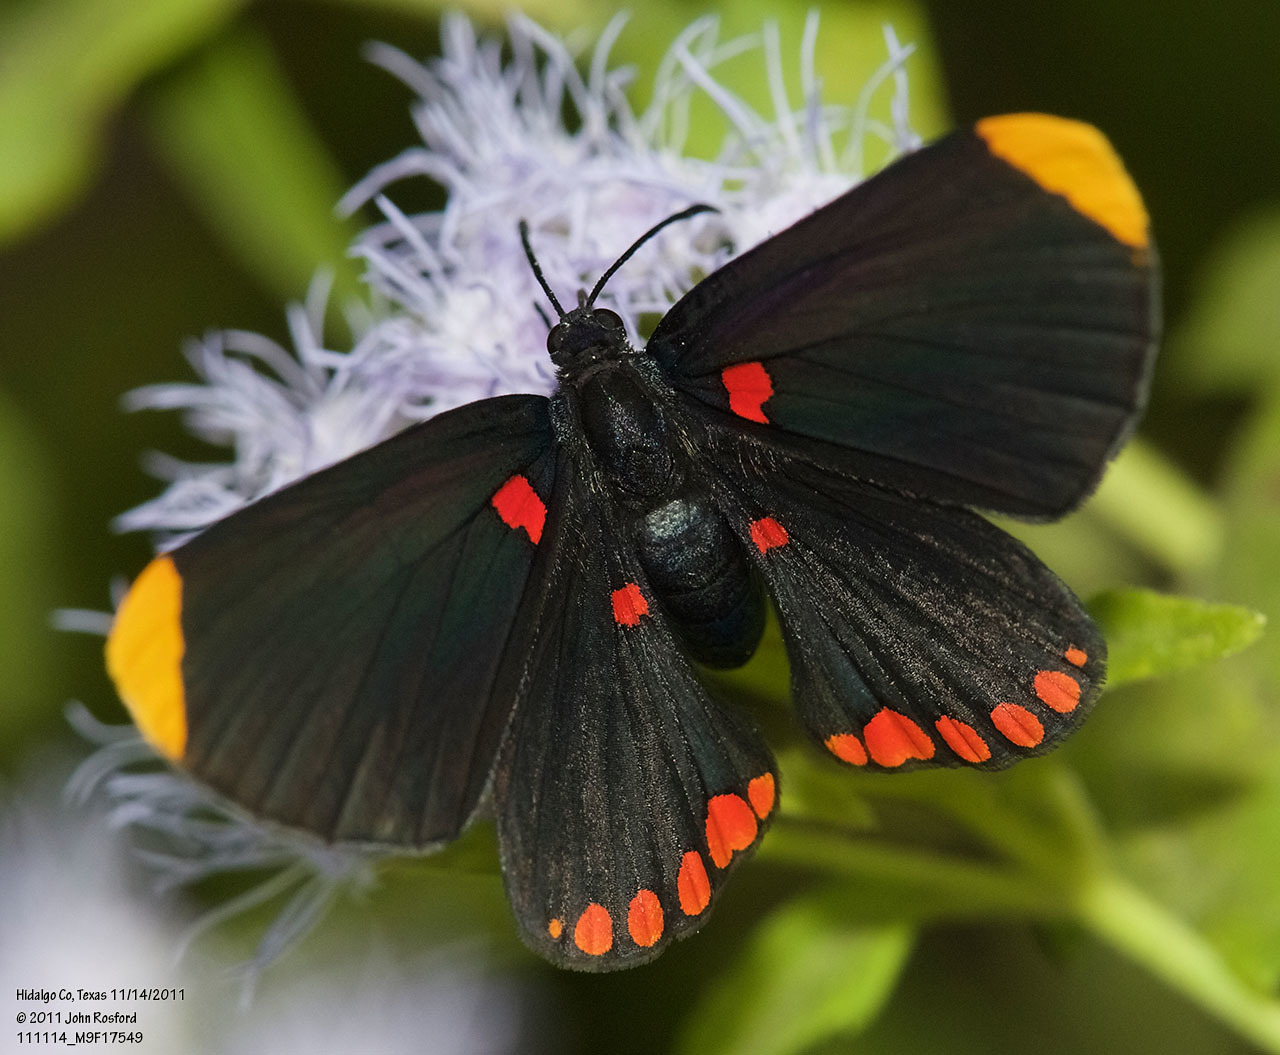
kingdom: Animalia
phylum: Arthropoda
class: Insecta
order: Lepidoptera
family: Lycaenidae
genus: Melanis
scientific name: Melanis pixe
